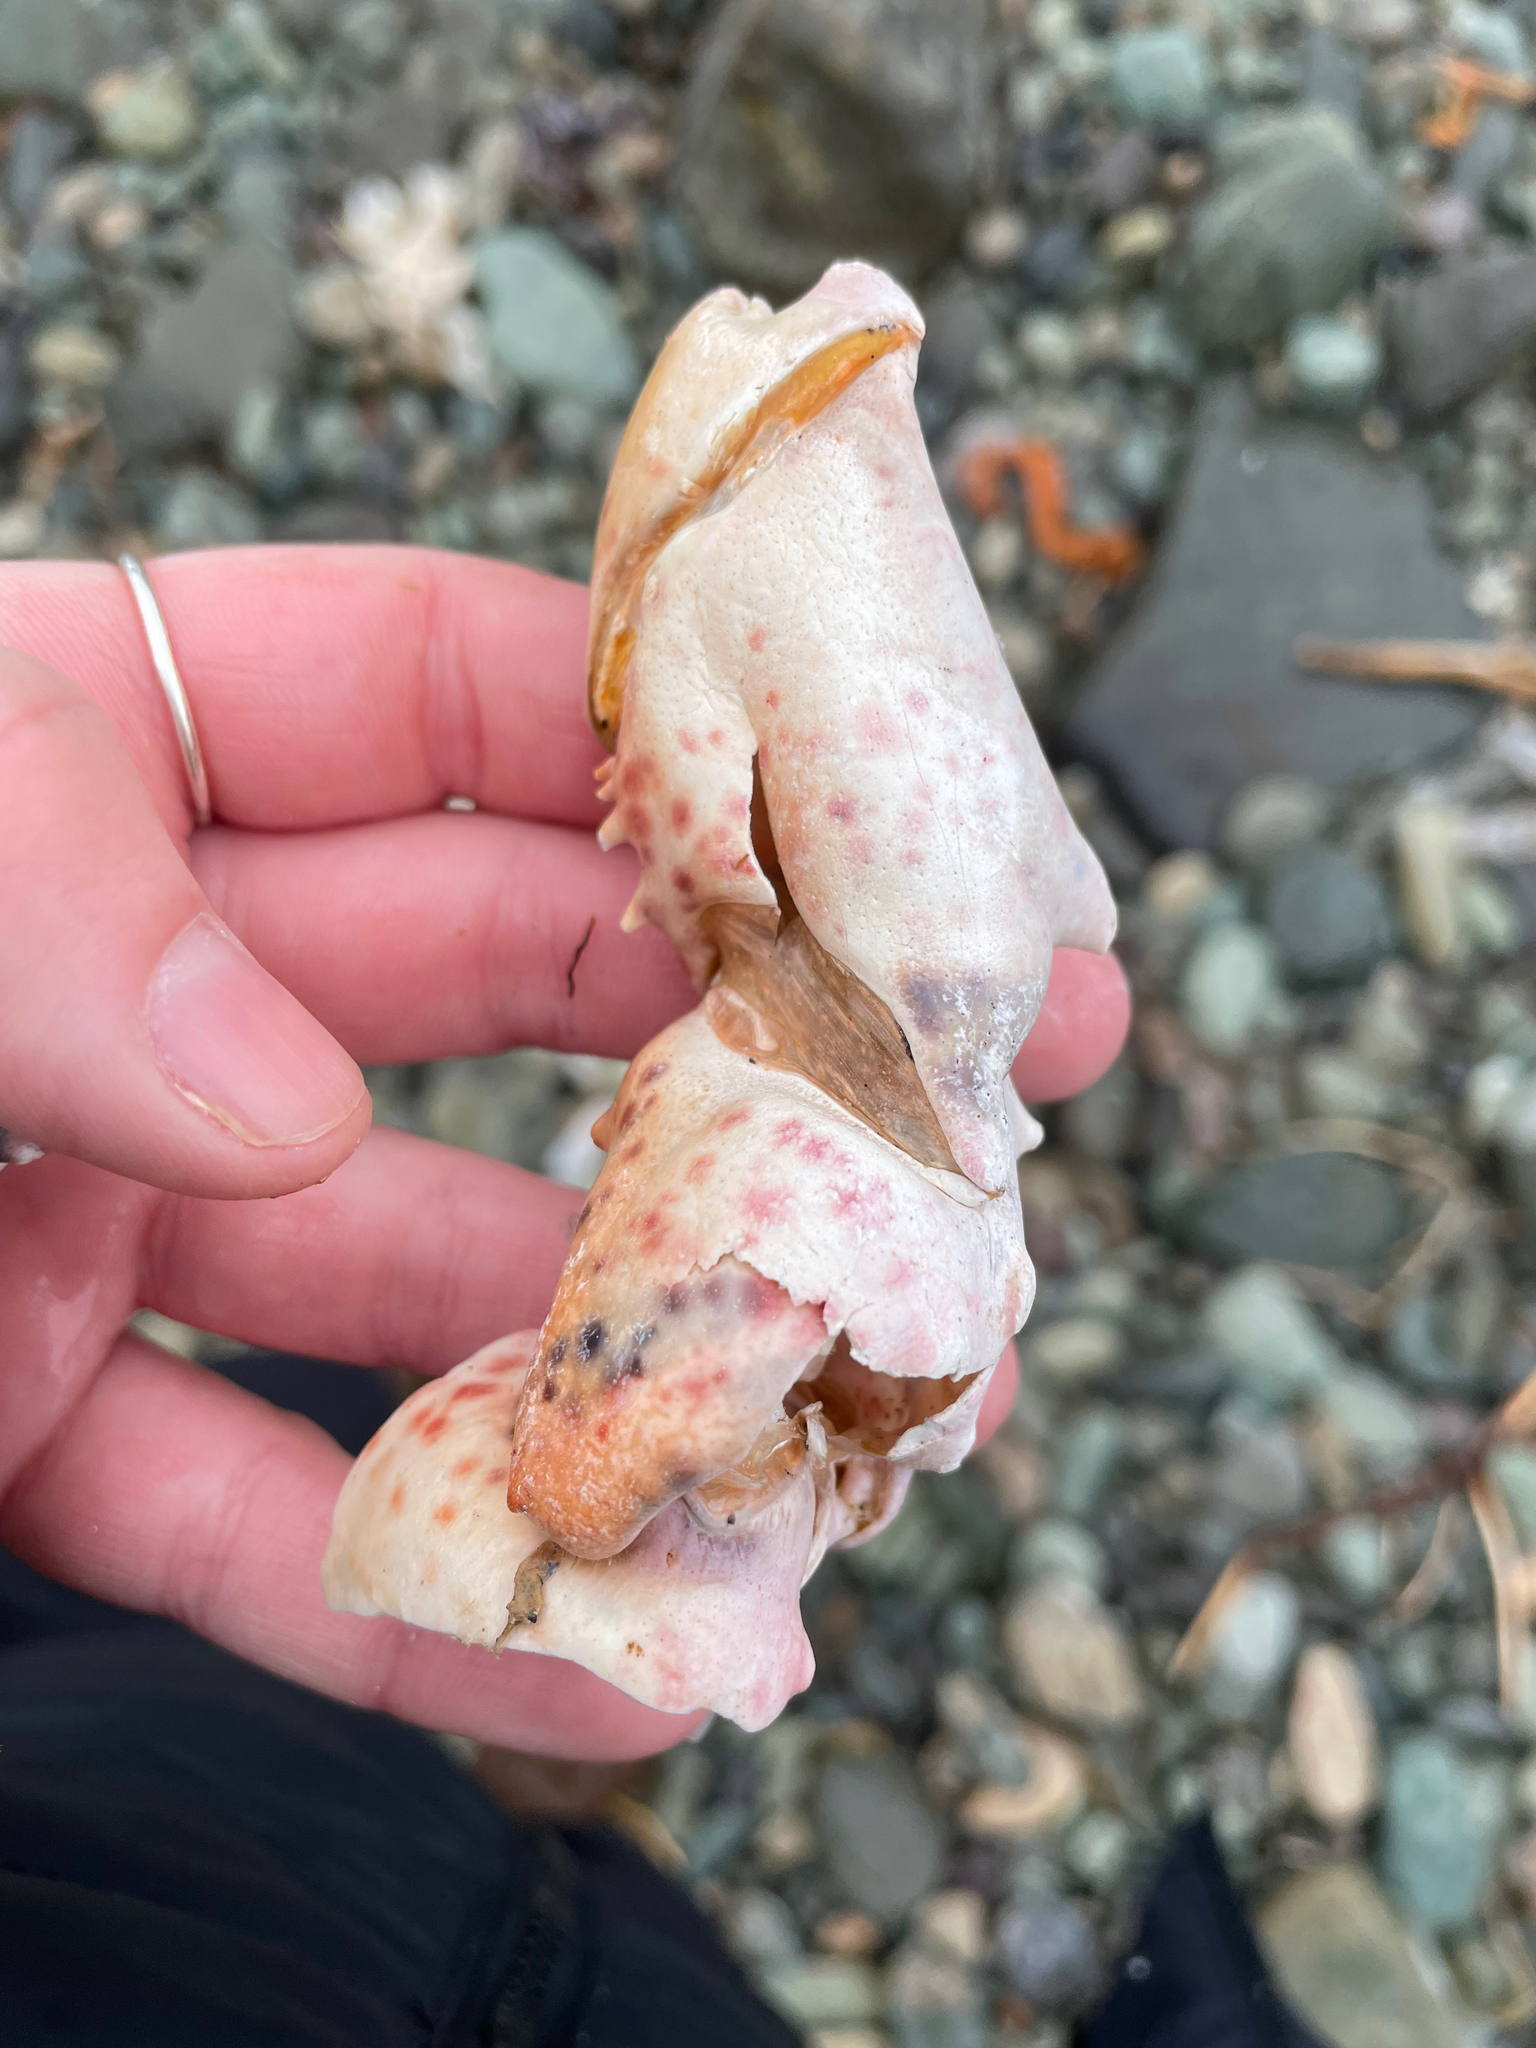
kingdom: Animalia
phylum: Arthropoda
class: Malacostraca
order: Decapoda
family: Nephropidae
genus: Homarus
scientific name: Homarus americanus
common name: American lobster
